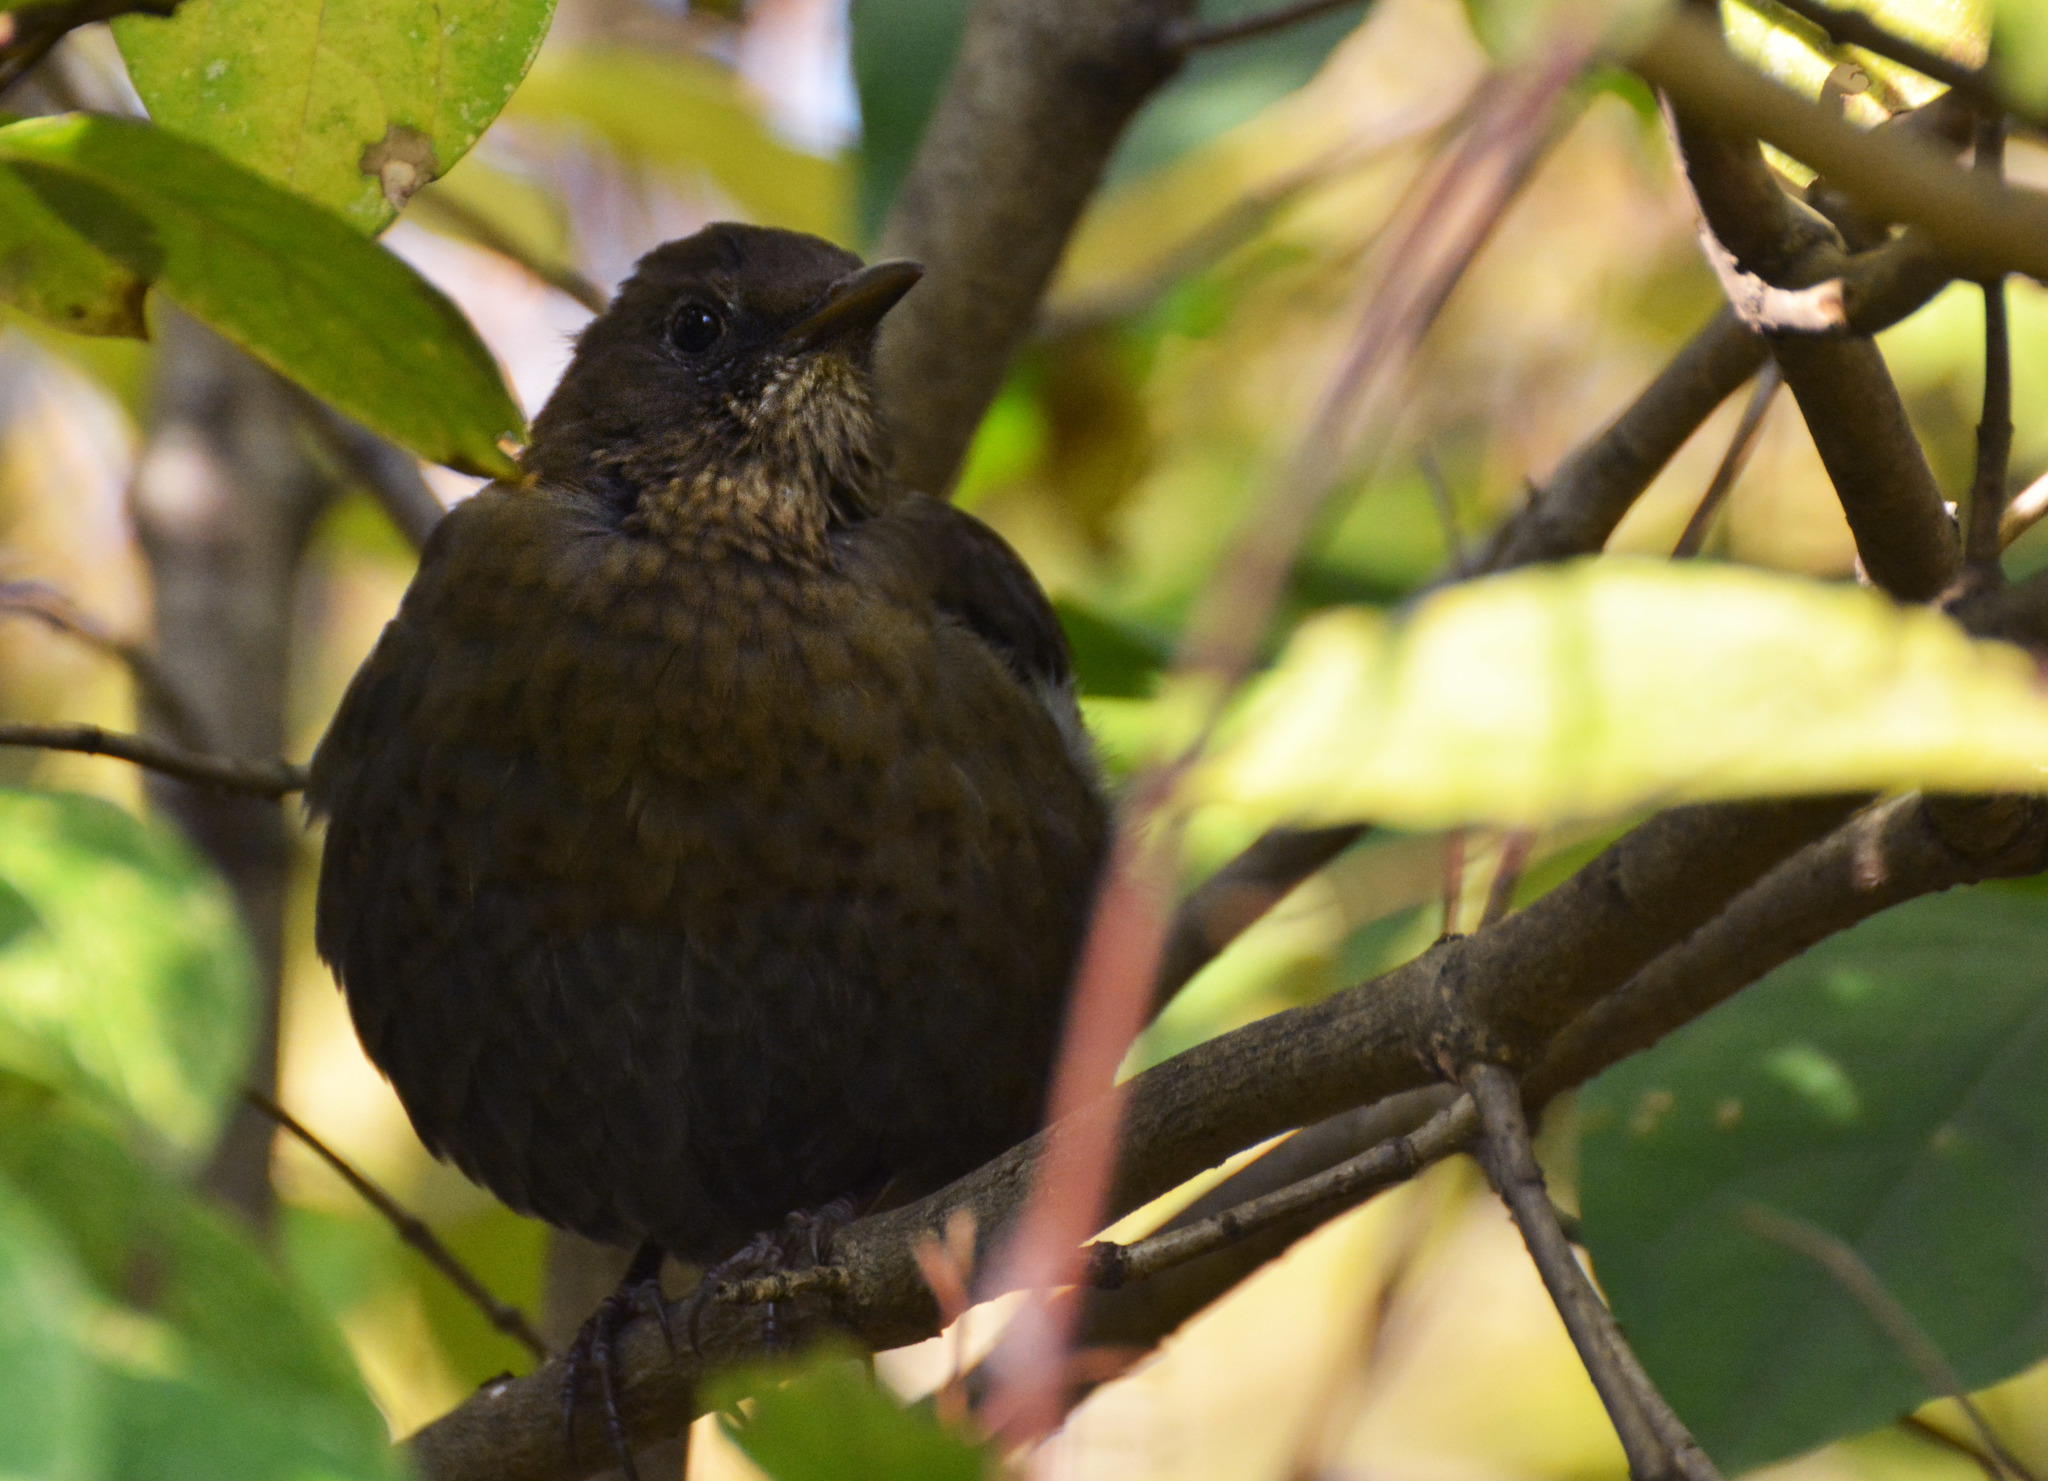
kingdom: Animalia
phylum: Chordata
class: Aves
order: Passeriformes
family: Turdidae
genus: Turdus
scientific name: Turdus merula
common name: Common blackbird
